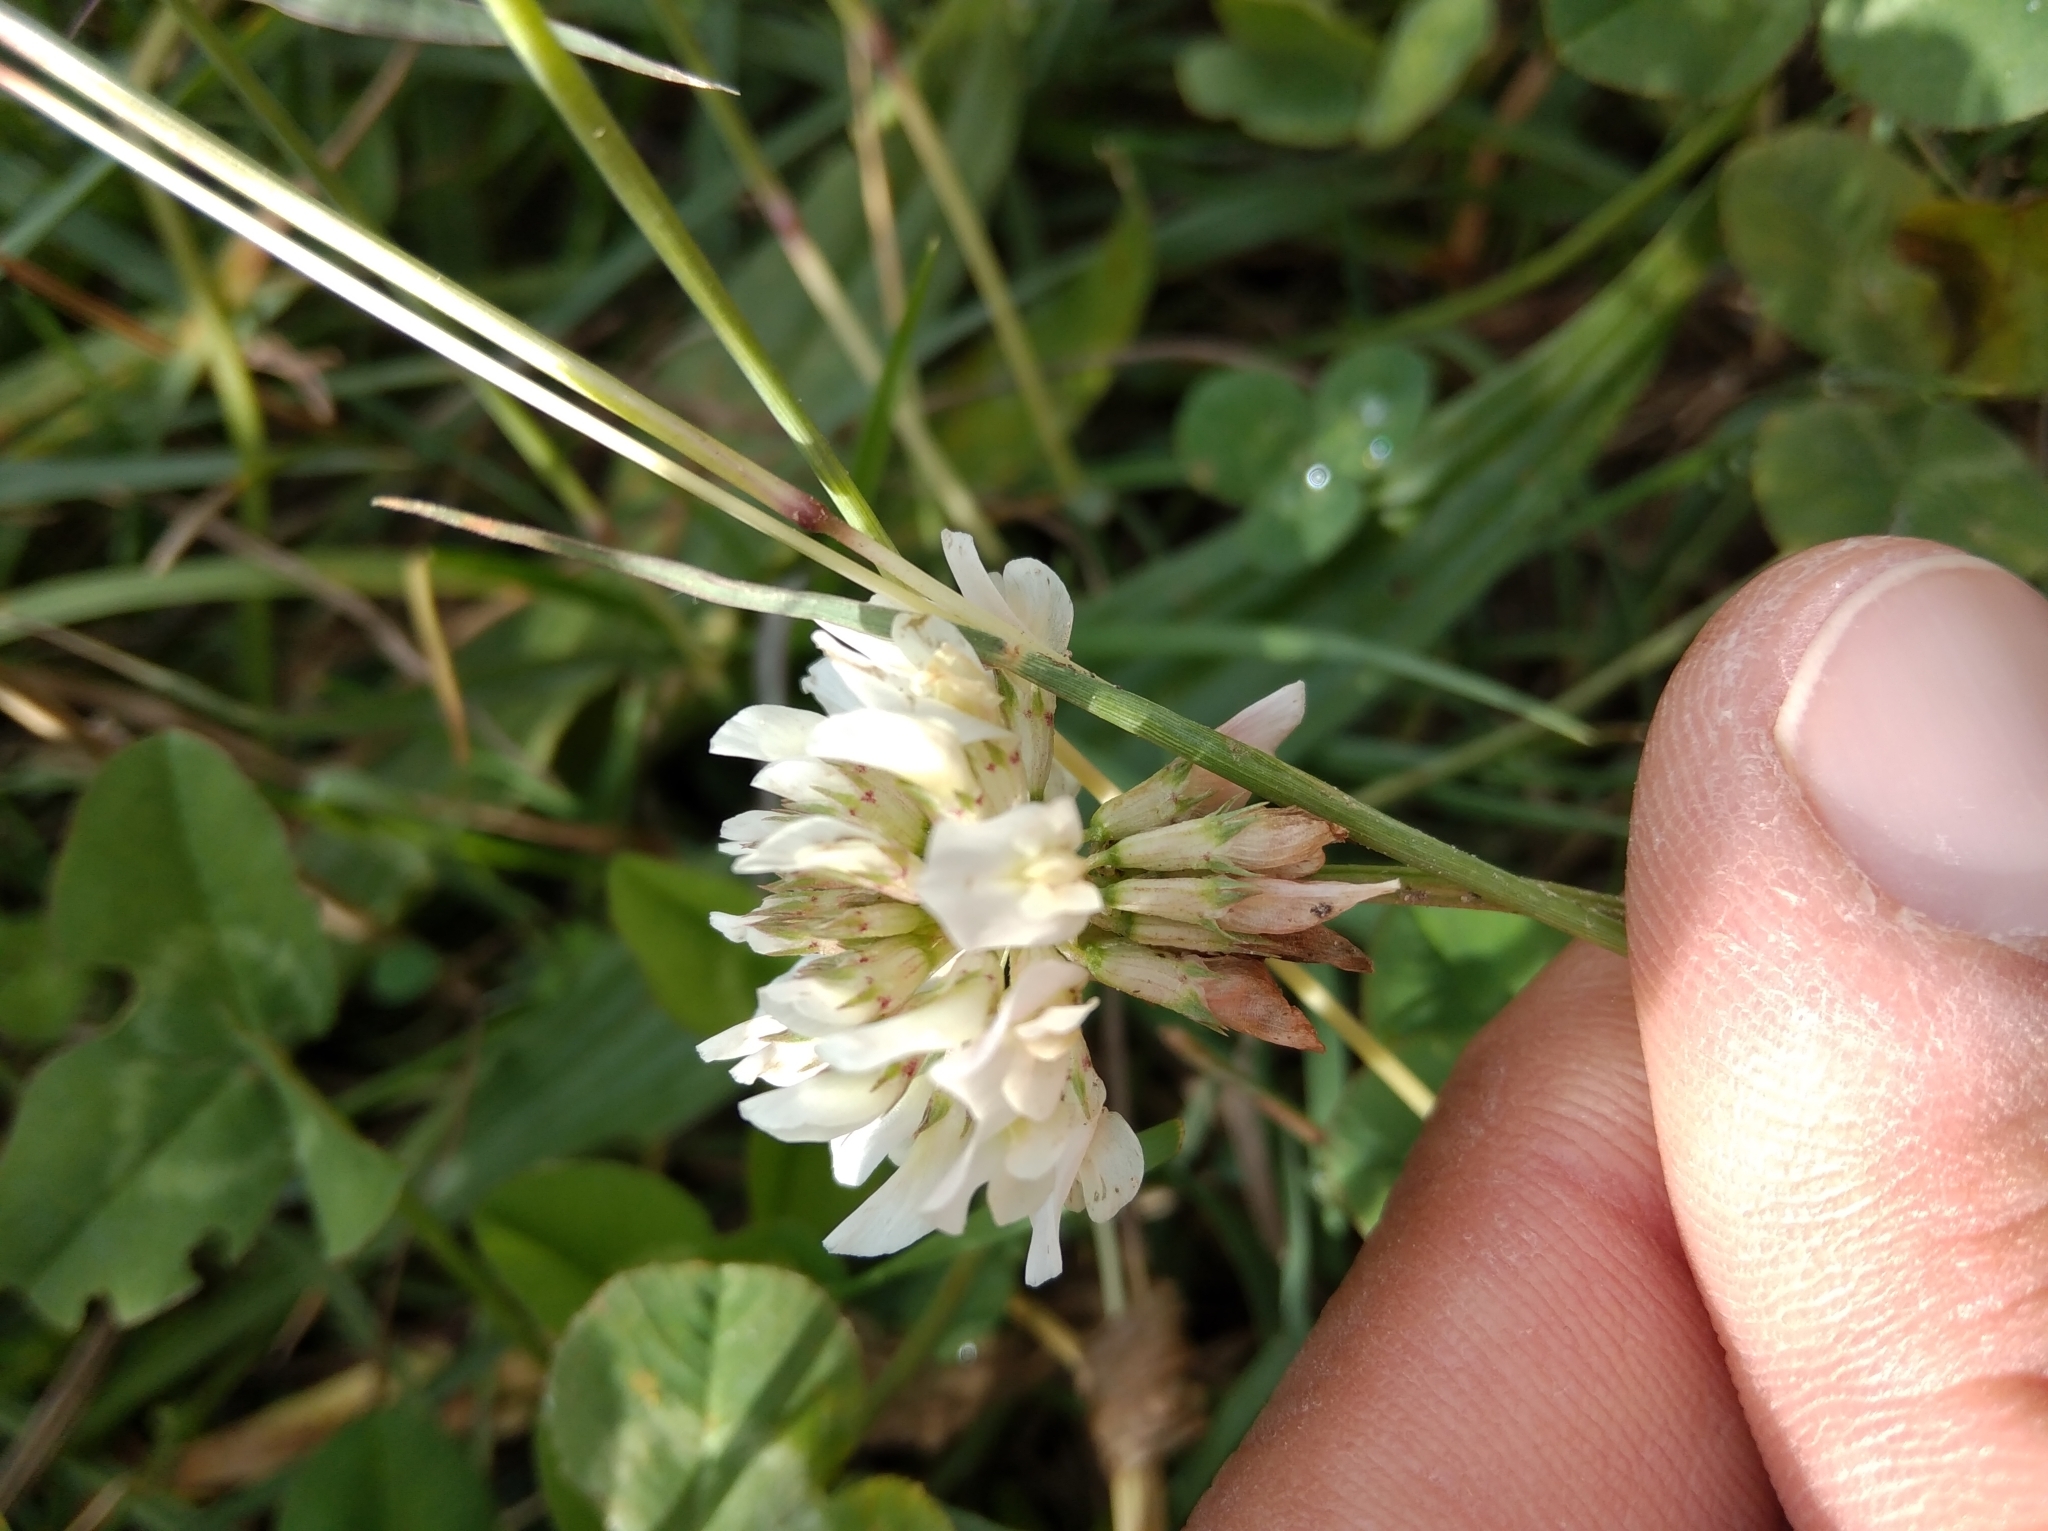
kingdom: Plantae
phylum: Tracheophyta
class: Magnoliopsida
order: Fabales
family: Fabaceae
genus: Trifolium
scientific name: Trifolium repens
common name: White clover
